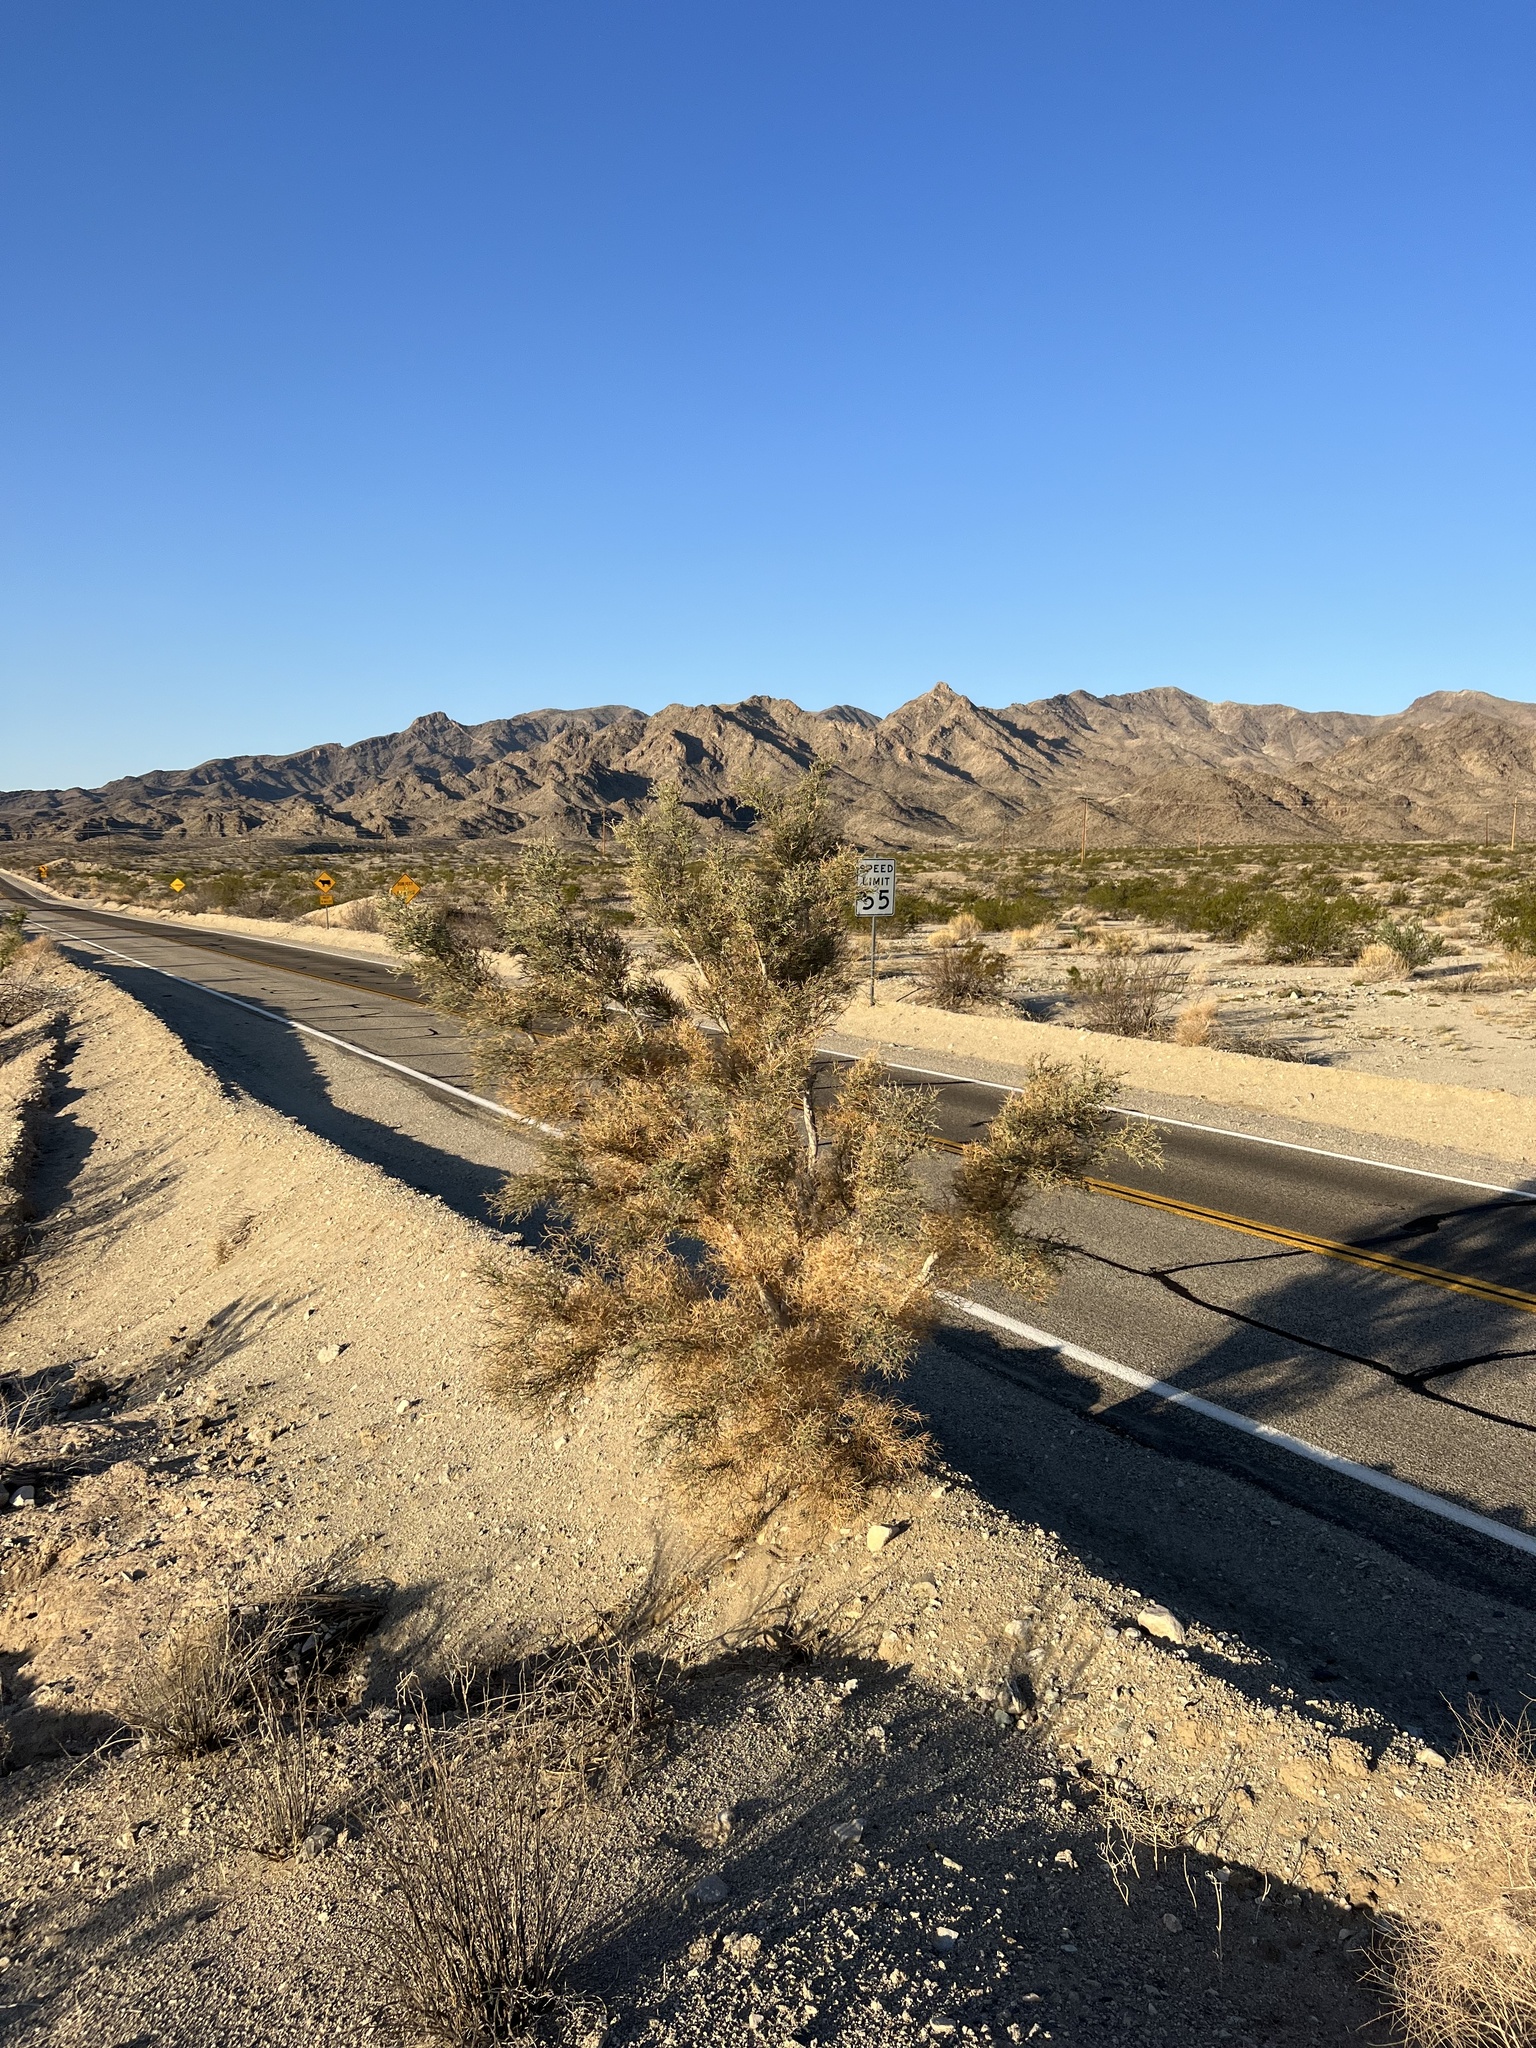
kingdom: Plantae
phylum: Tracheophyta
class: Magnoliopsida
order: Fabales
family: Fabaceae
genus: Psorothamnus
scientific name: Psorothamnus spinosus
